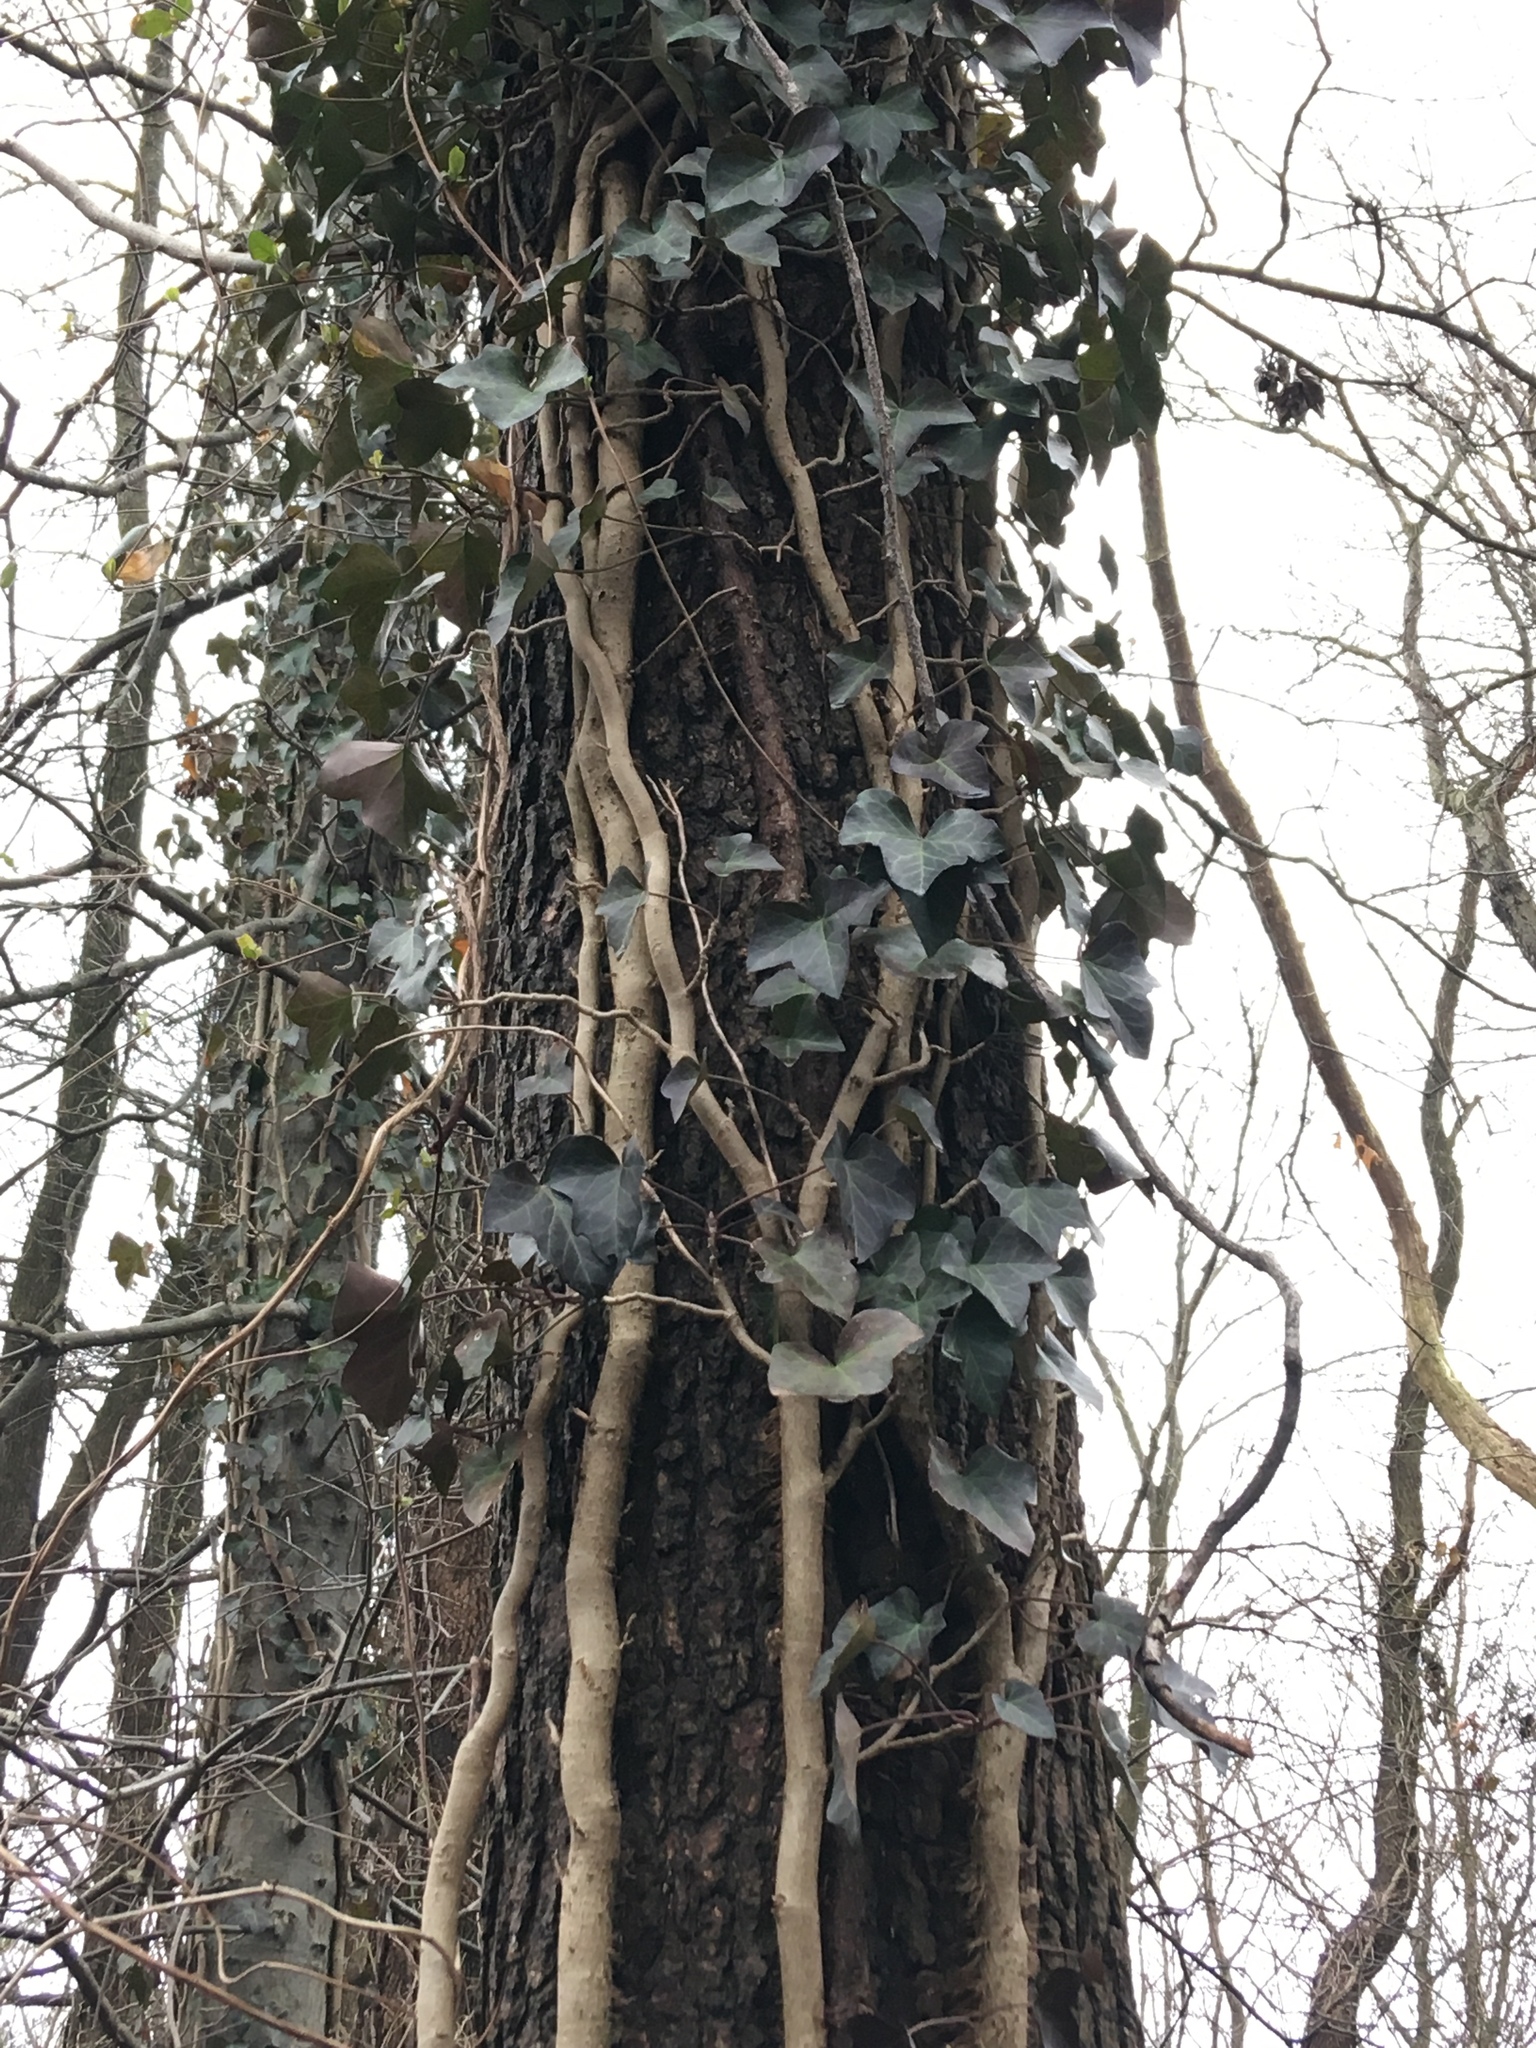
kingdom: Plantae
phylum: Tracheophyta
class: Magnoliopsida
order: Apiales
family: Araliaceae
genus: Hedera
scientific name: Hedera helix
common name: Ivy
